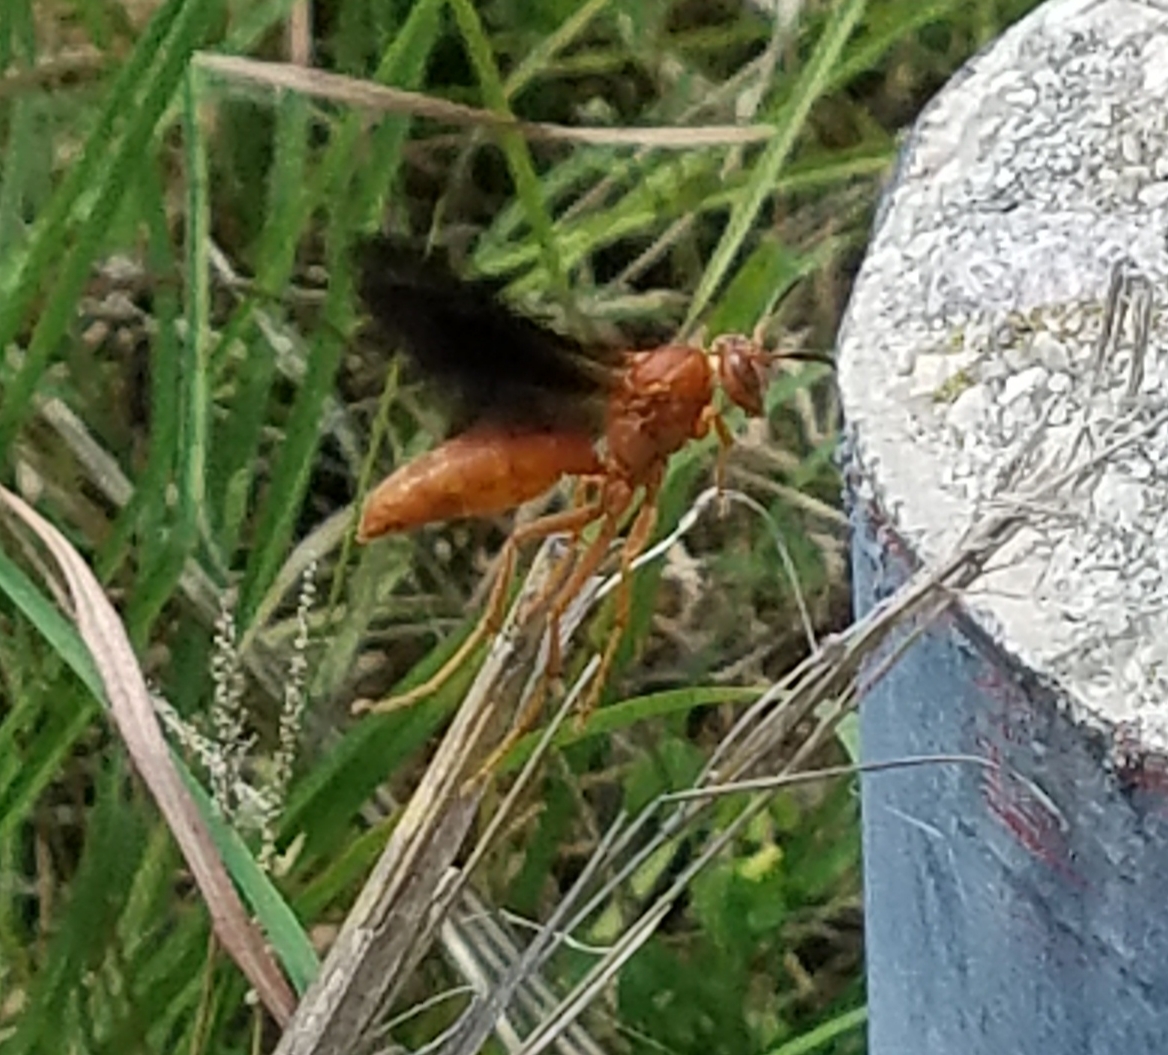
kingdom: Animalia
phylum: Arthropoda
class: Insecta
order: Hymenoptera
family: Eumenidae
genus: Polistes
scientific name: Polistes carolina
